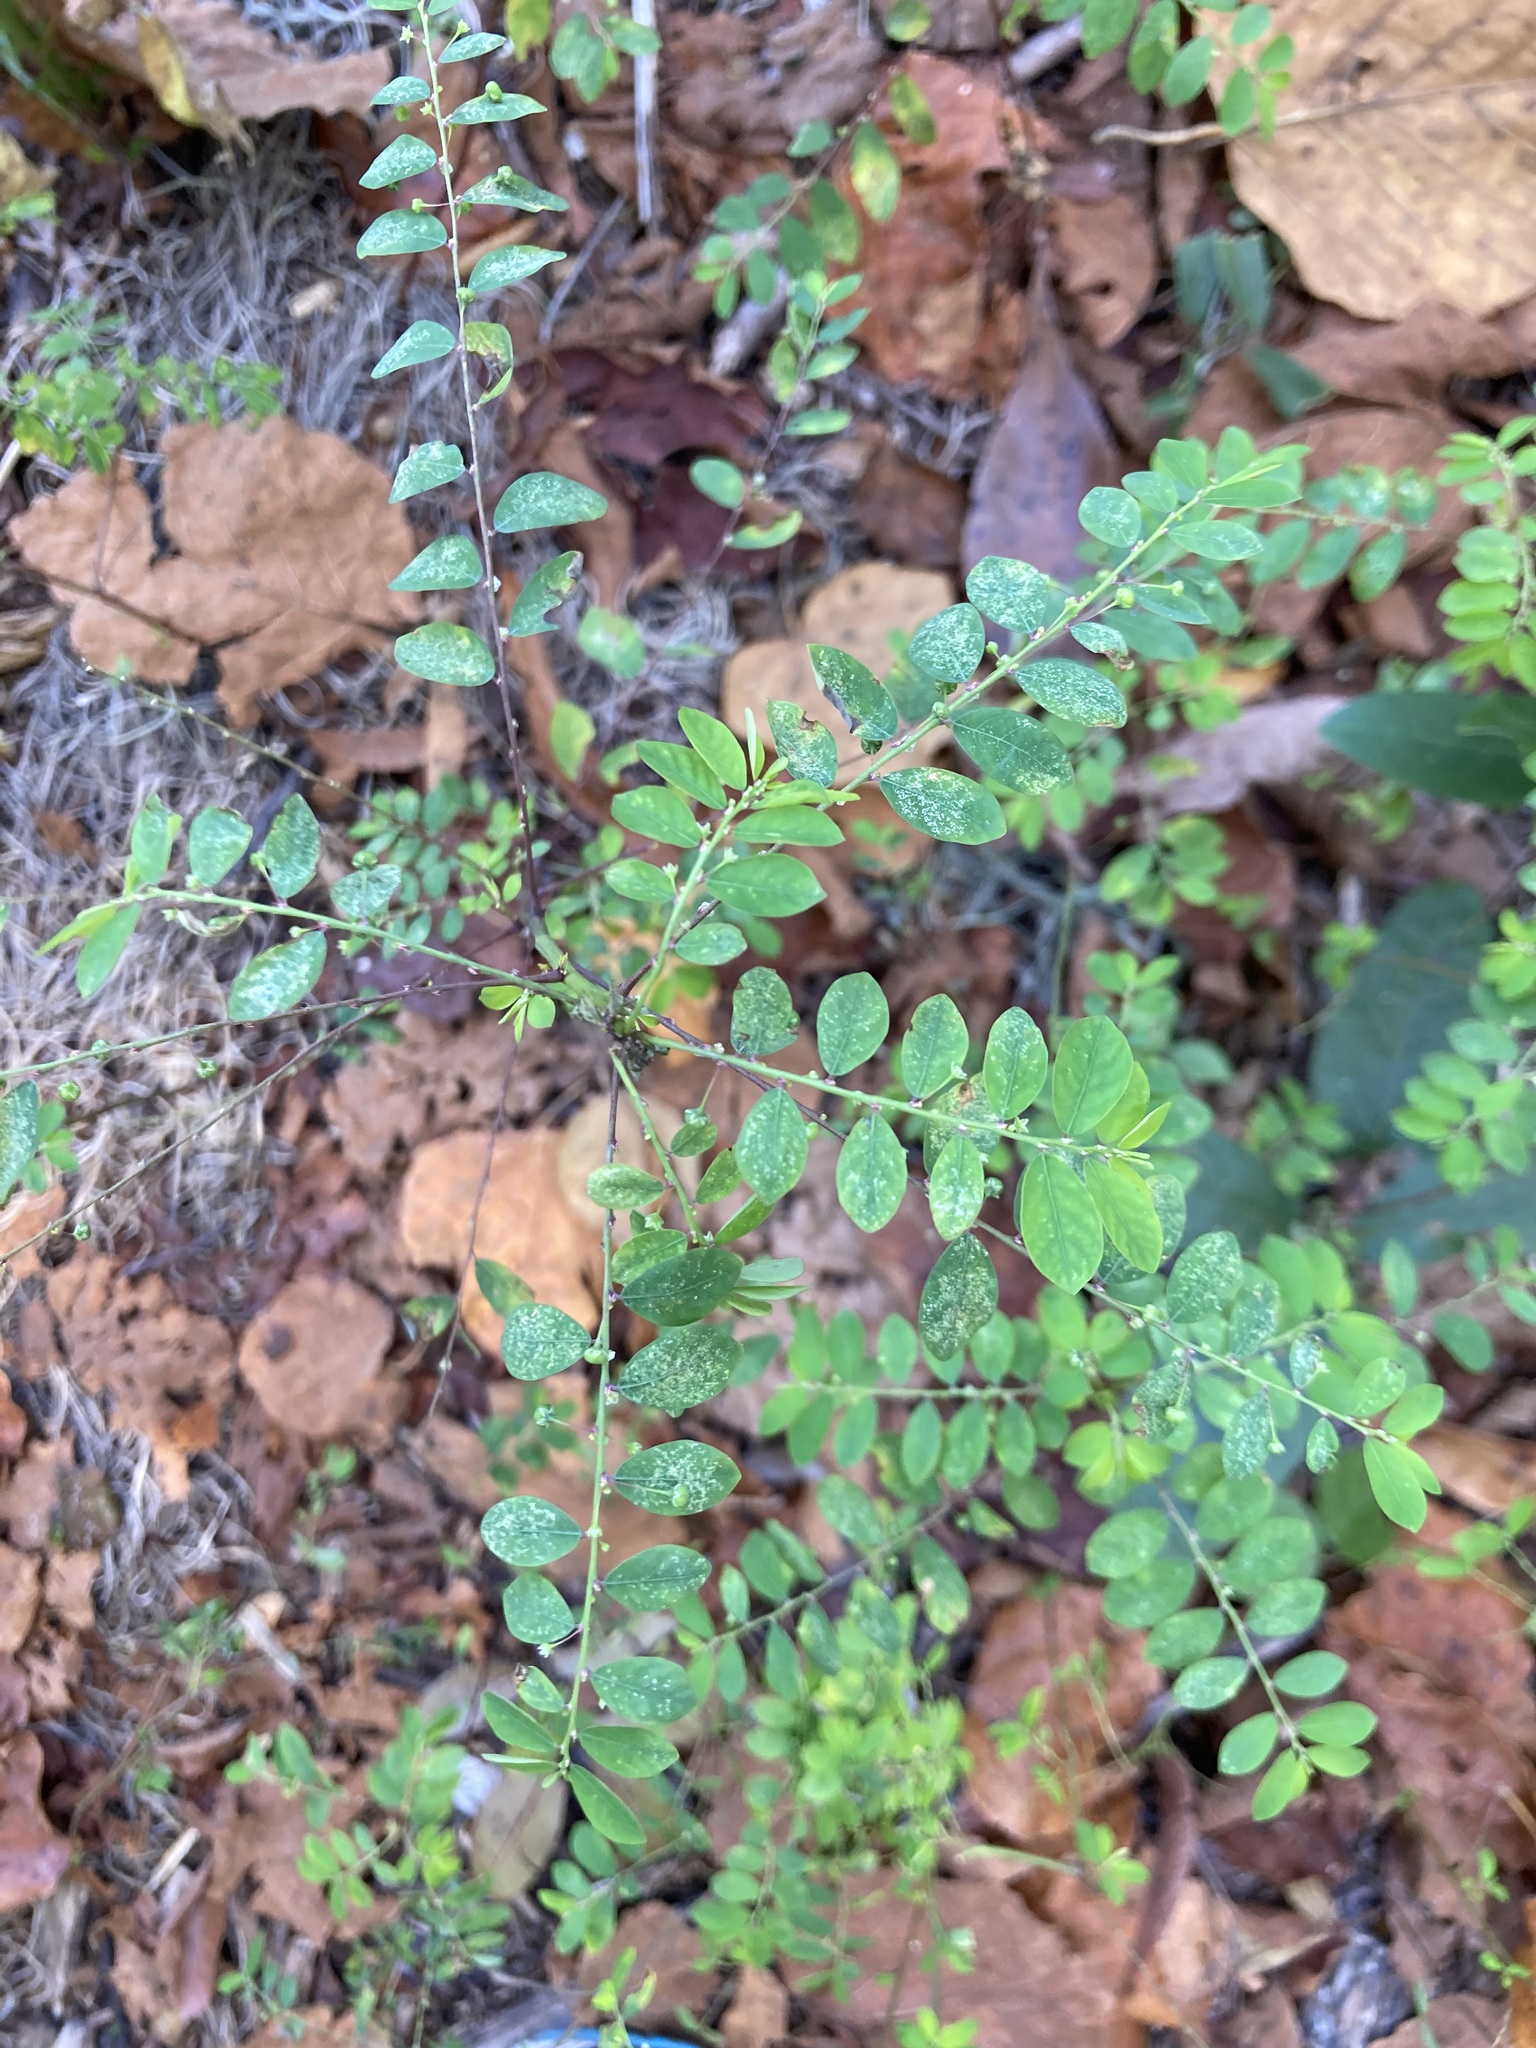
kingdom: Plantae
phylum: Tracheophyta
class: Magnoliopsida
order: Malpighiales
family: Phyllanthaceae
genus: Phyllanthus
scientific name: Phyllanthus tenellus
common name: Mascarene island leaf-flower
